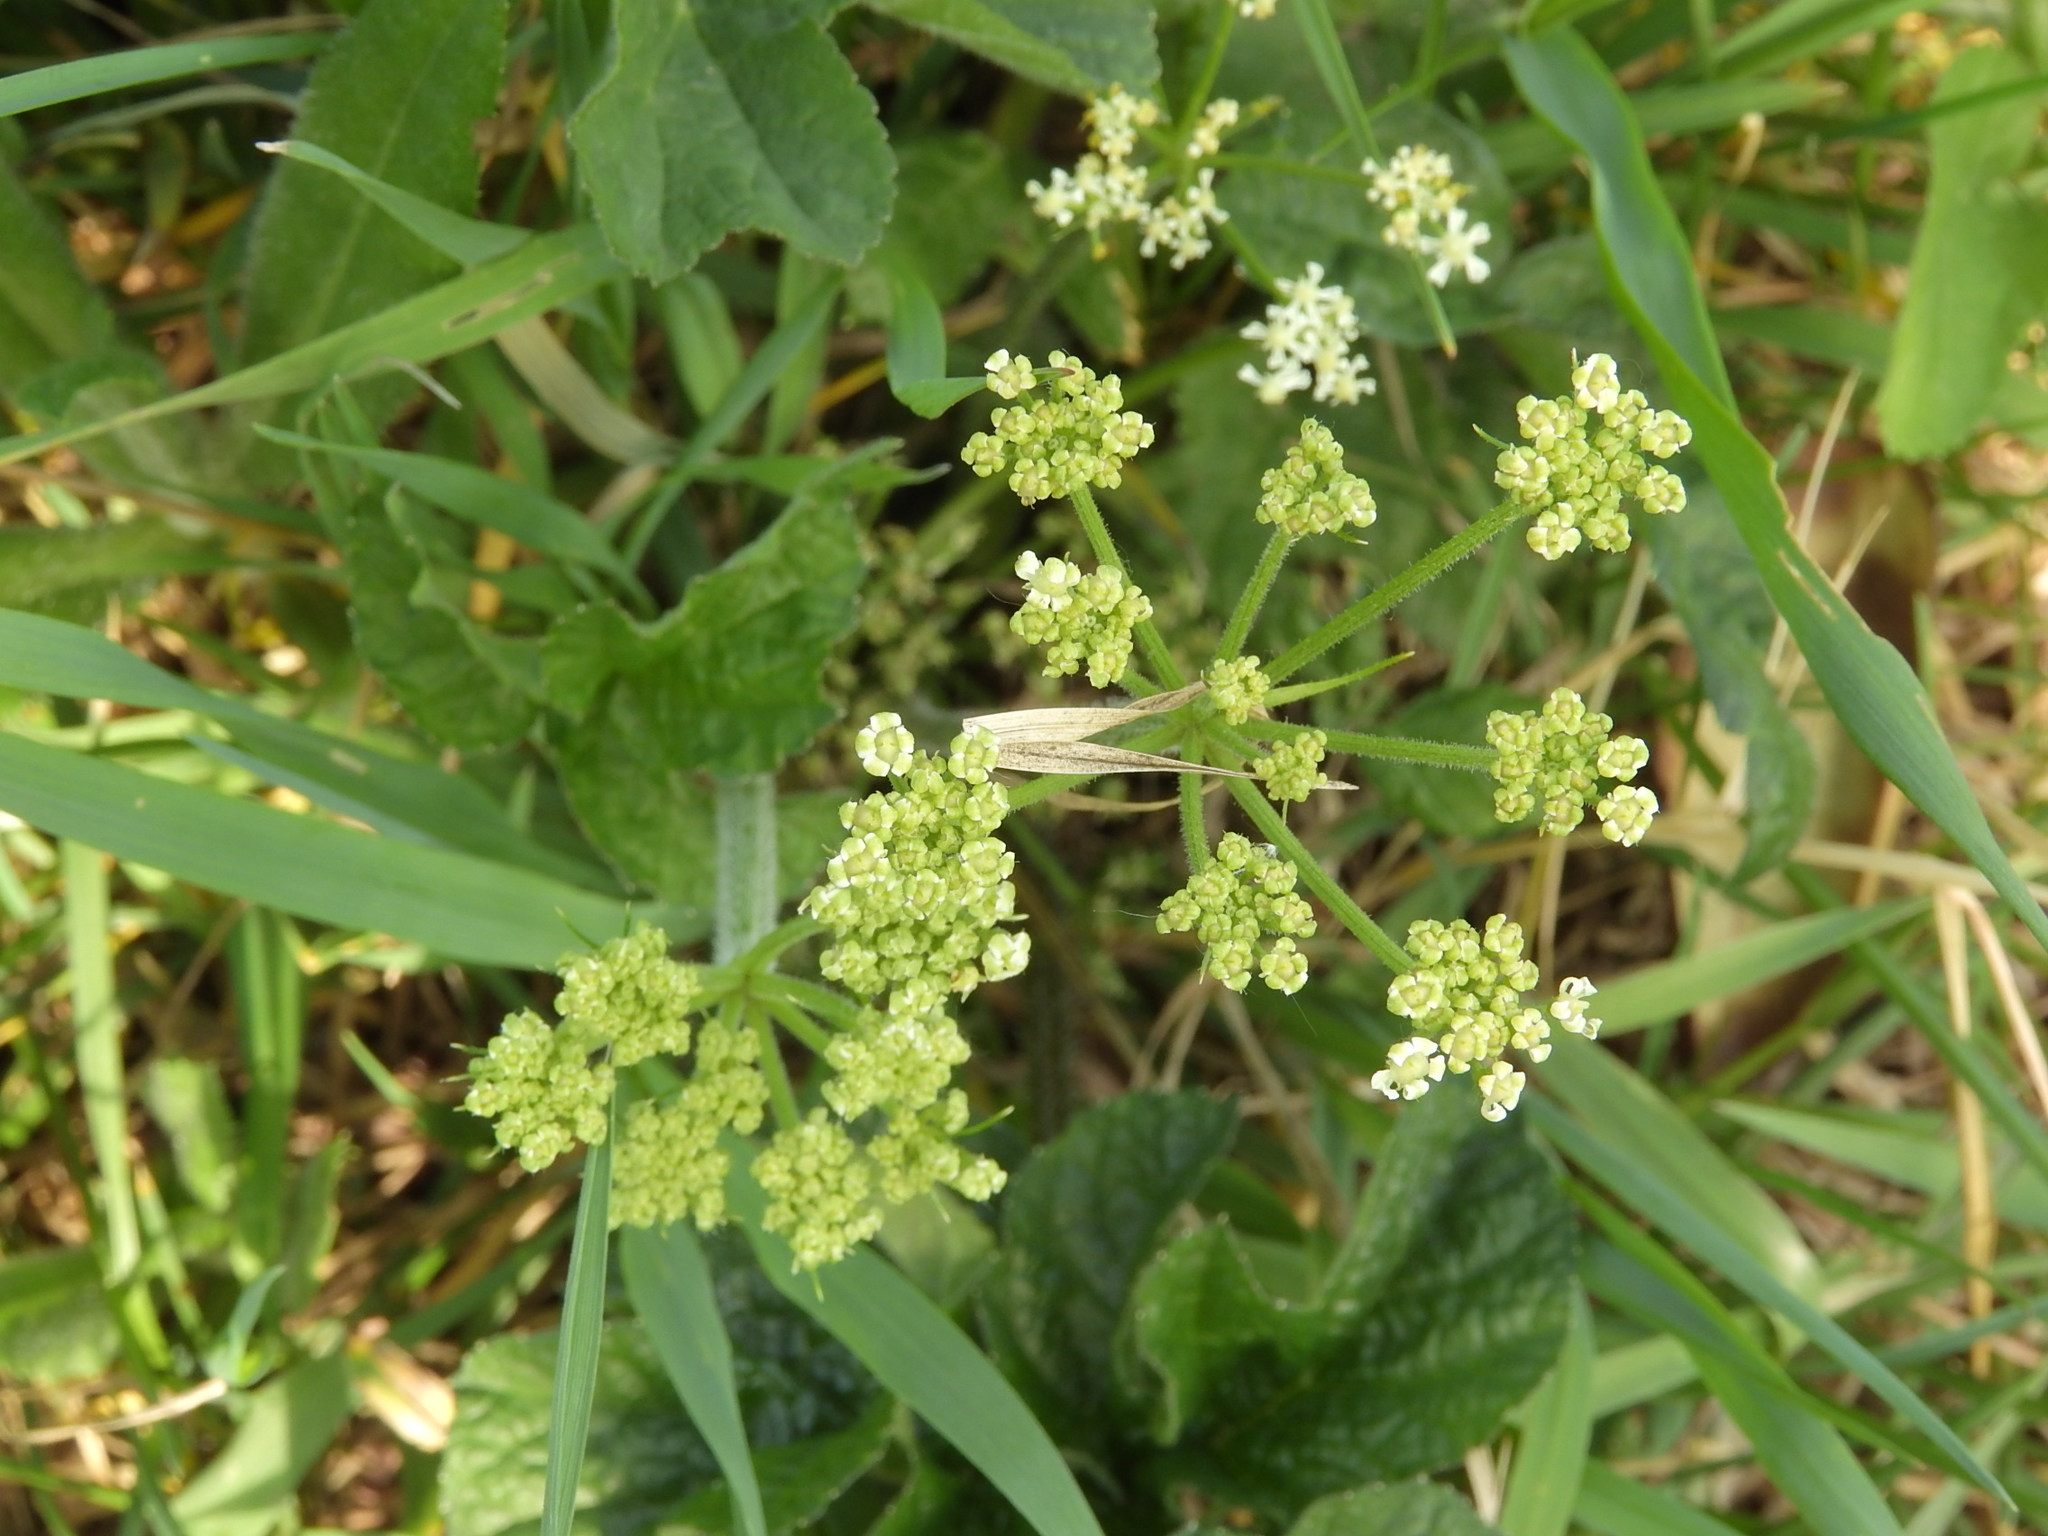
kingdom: Plantae
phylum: Tracheophyta
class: Magnoliopsida
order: Apiales
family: Apiaceae
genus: Heracleum
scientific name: Heracleum sphondylium
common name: Hogweed
